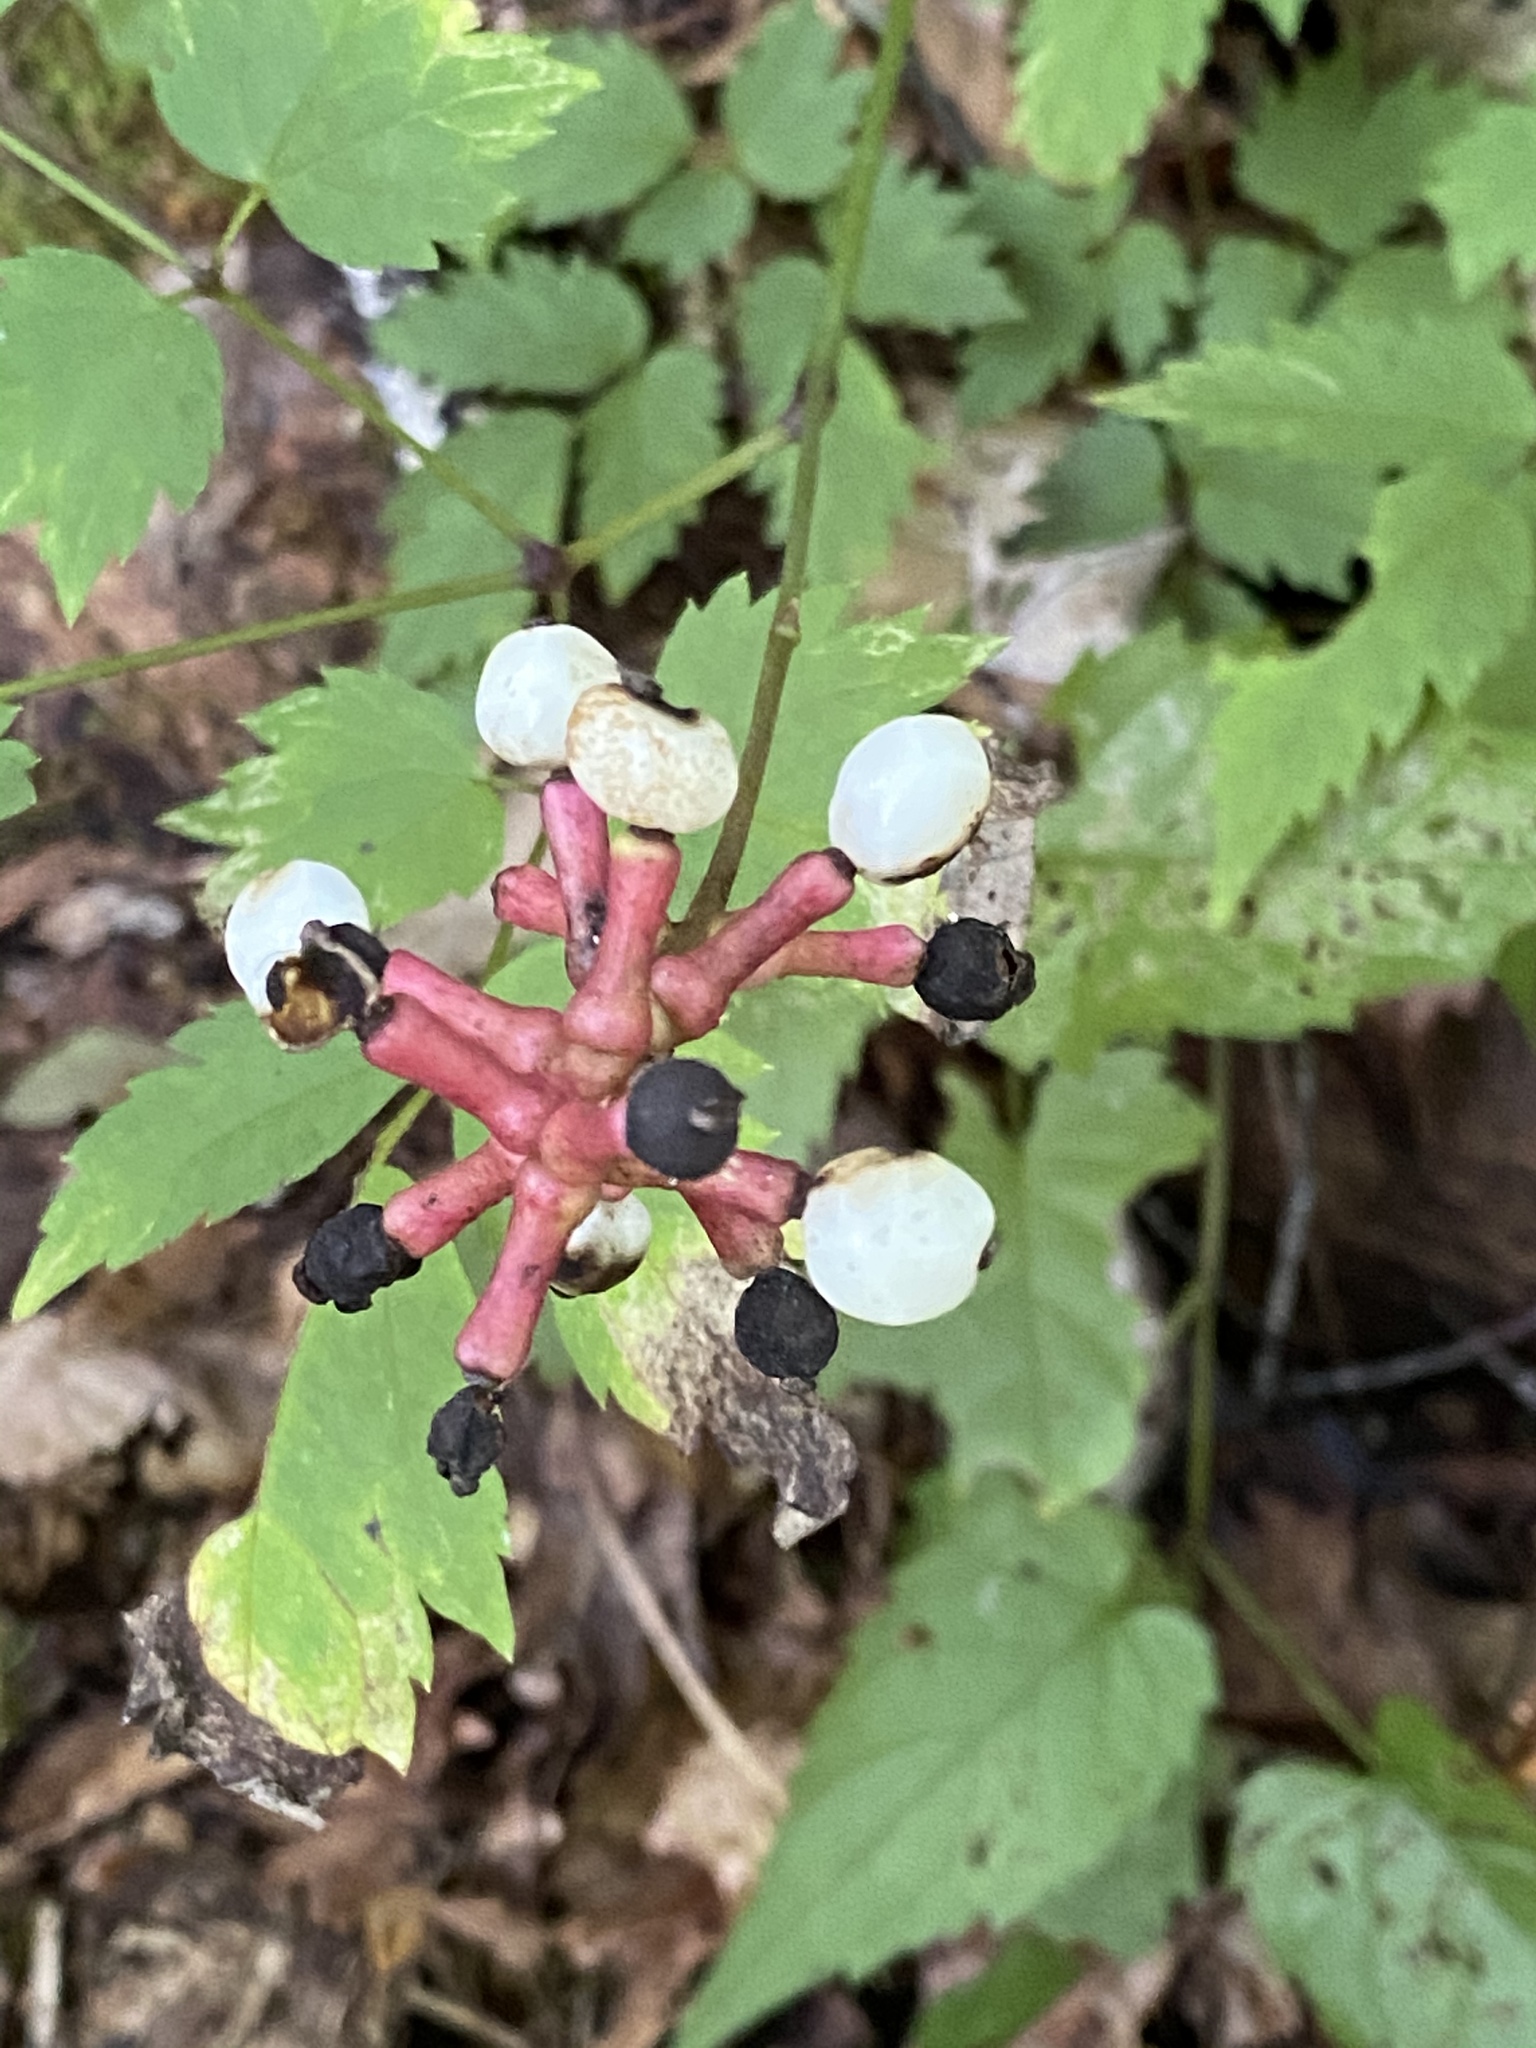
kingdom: Plantae
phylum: Tracheophyta
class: Magnoliopsida
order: Ranunculales
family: Ranunculaceae
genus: Actaea
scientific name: Actaea pachypoda
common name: Doll's-eyes
